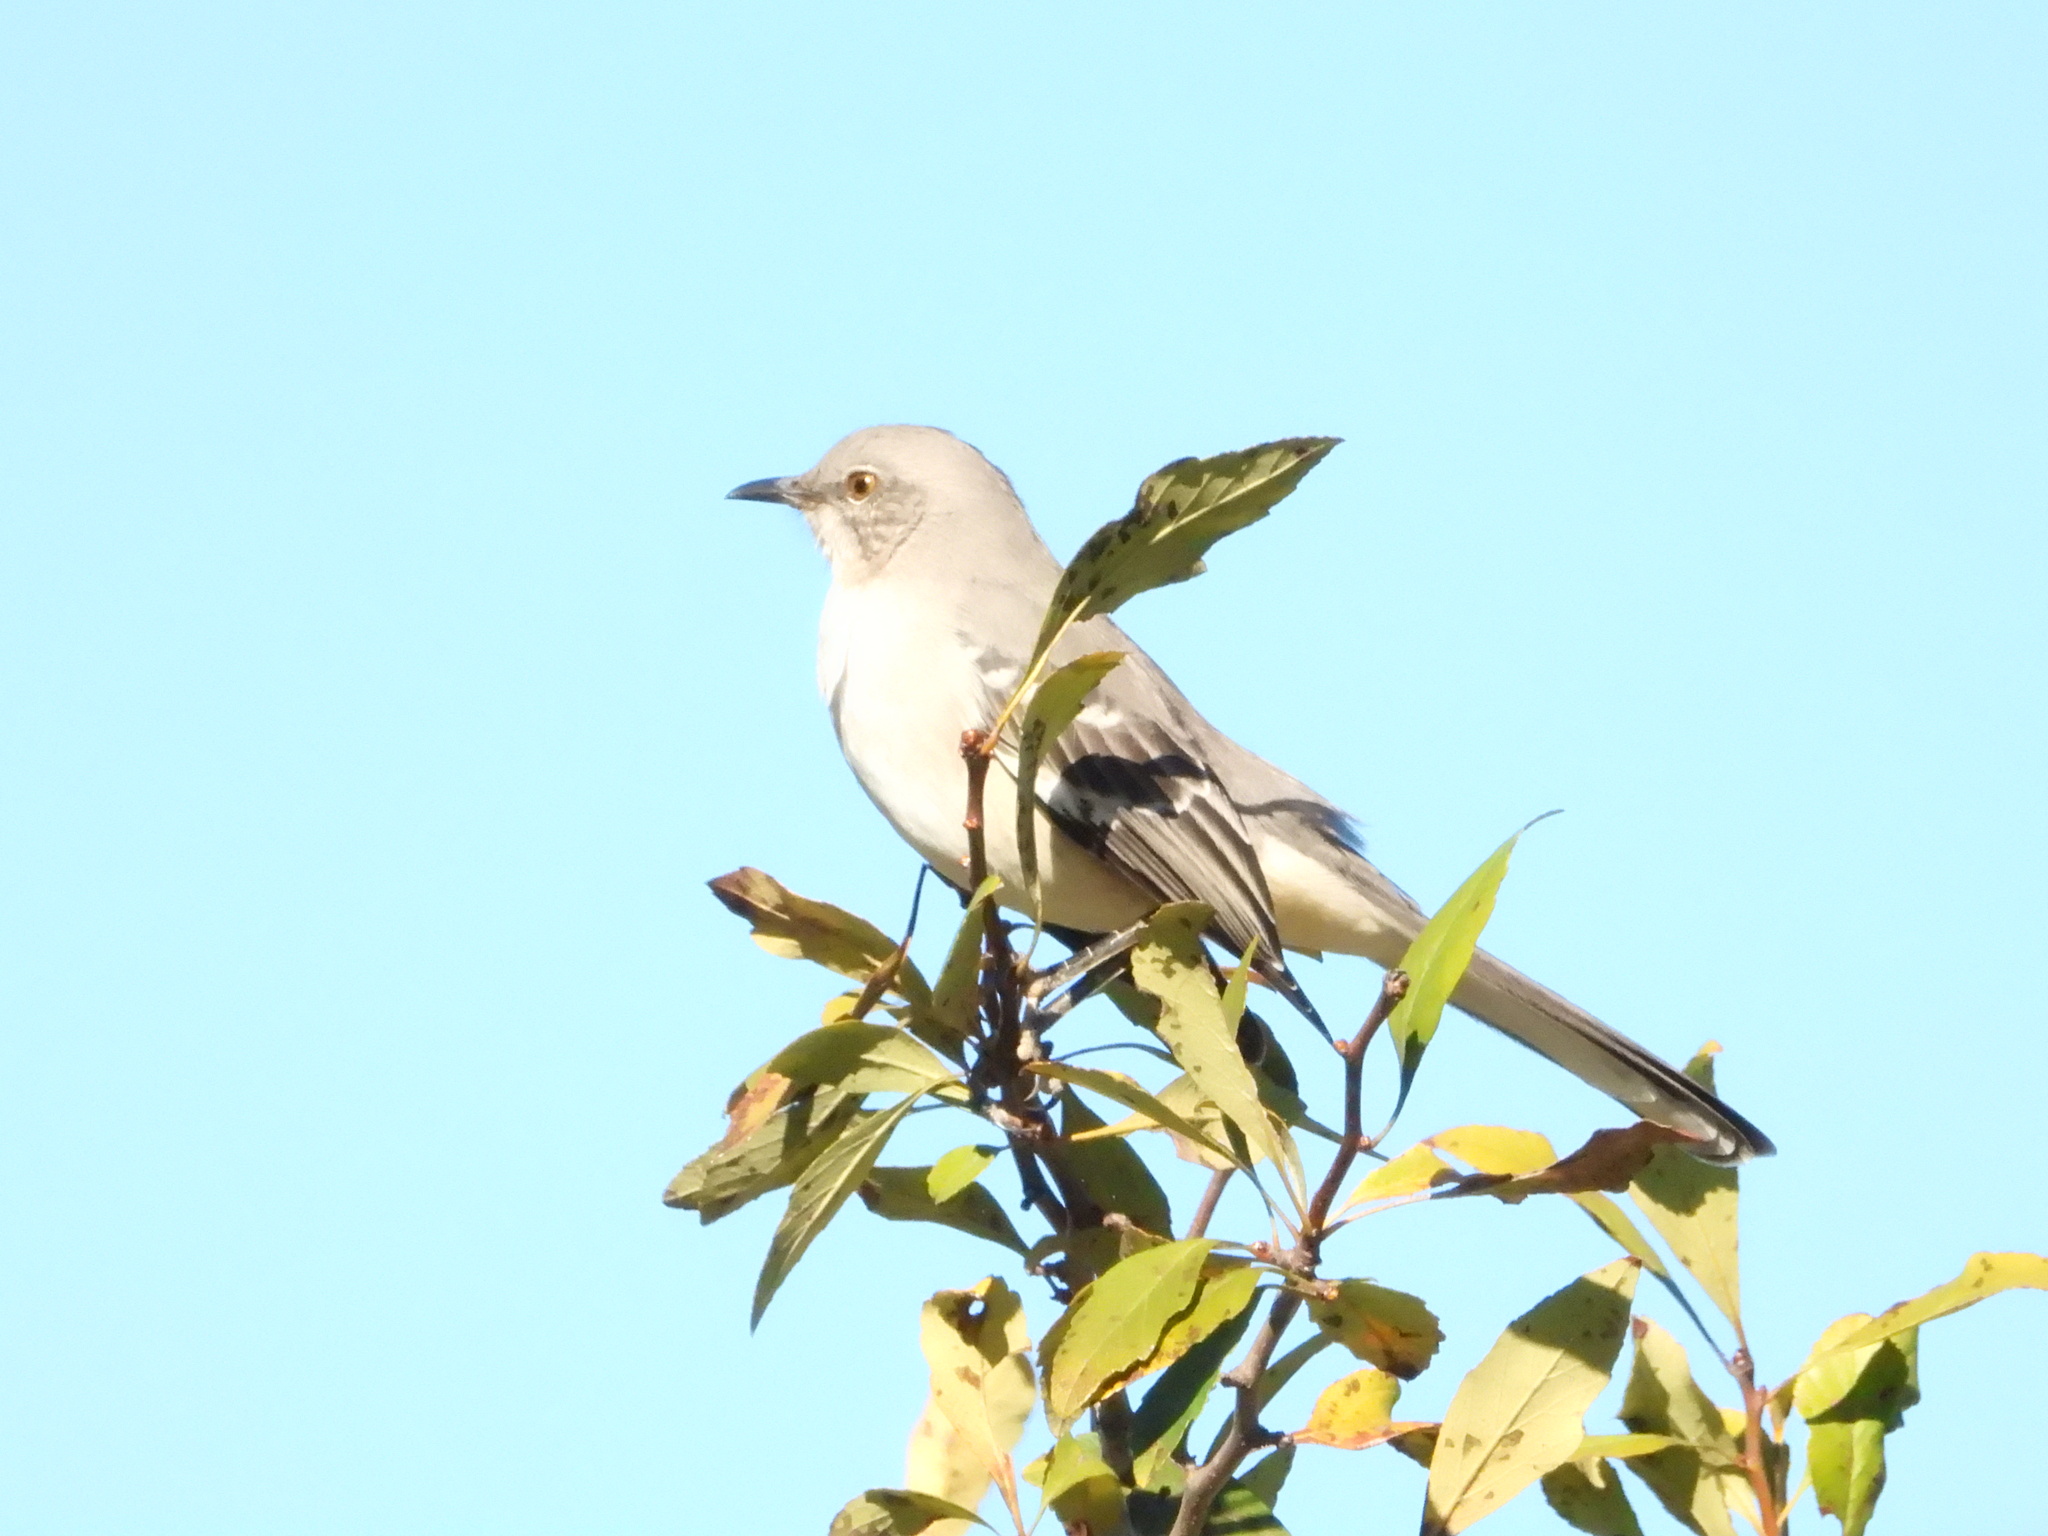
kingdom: Animalia
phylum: Chordata
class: Aves
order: Passeriformes
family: Mimidae
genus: Mimus
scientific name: Mimus polyglottos
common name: Northern mockingbird
